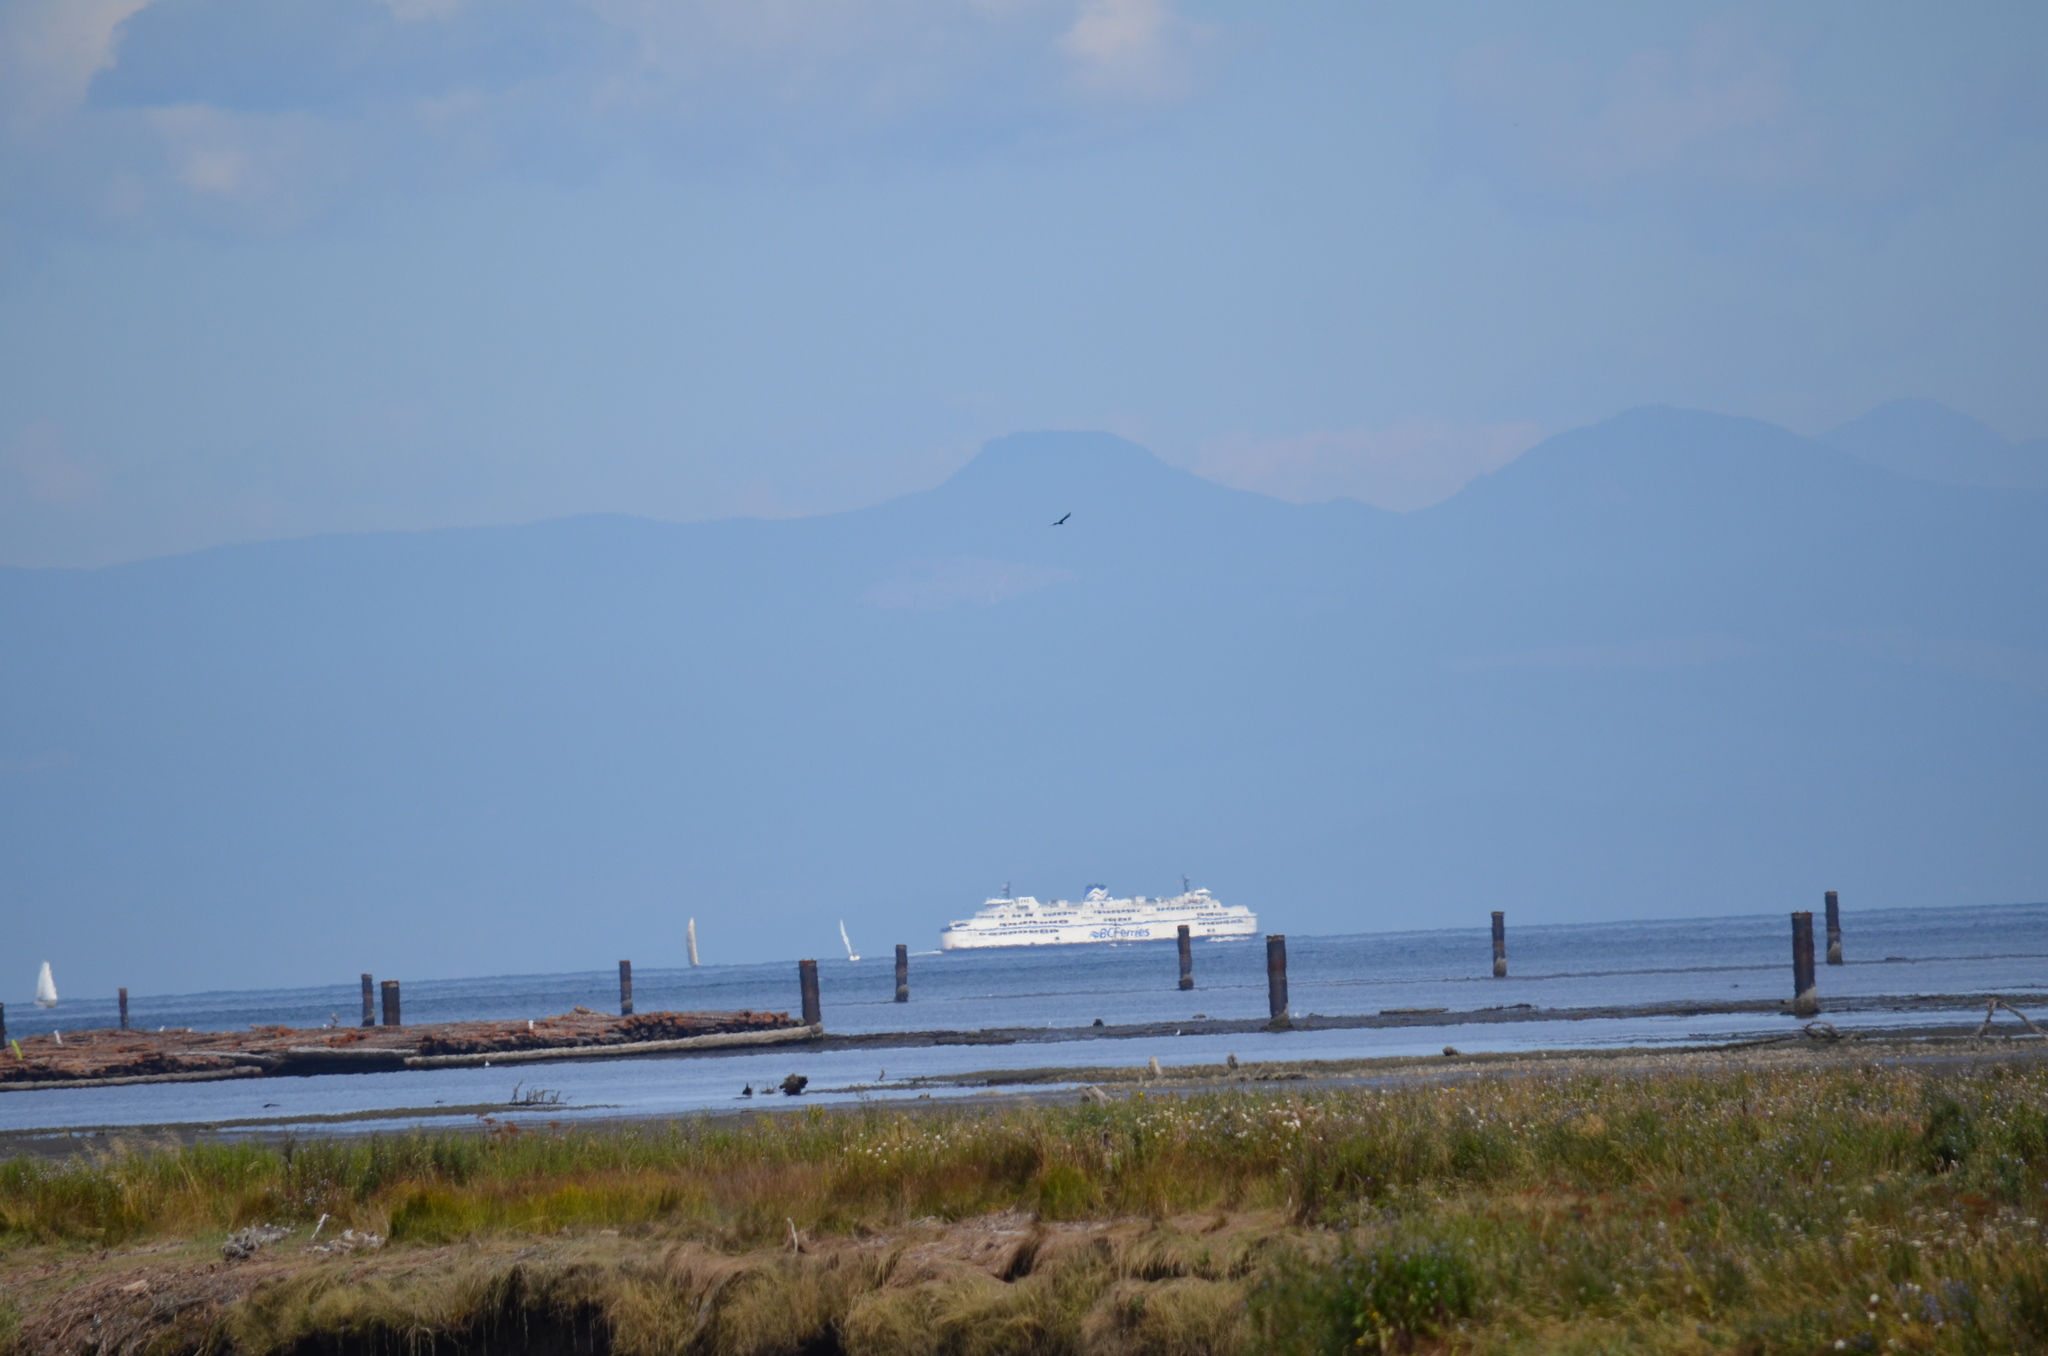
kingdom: Animalia
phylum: Chordata
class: Aves
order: Accipitriformes
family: Cathartidae
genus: Cathartes
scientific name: Cathartes aura
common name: Turkey vulture
